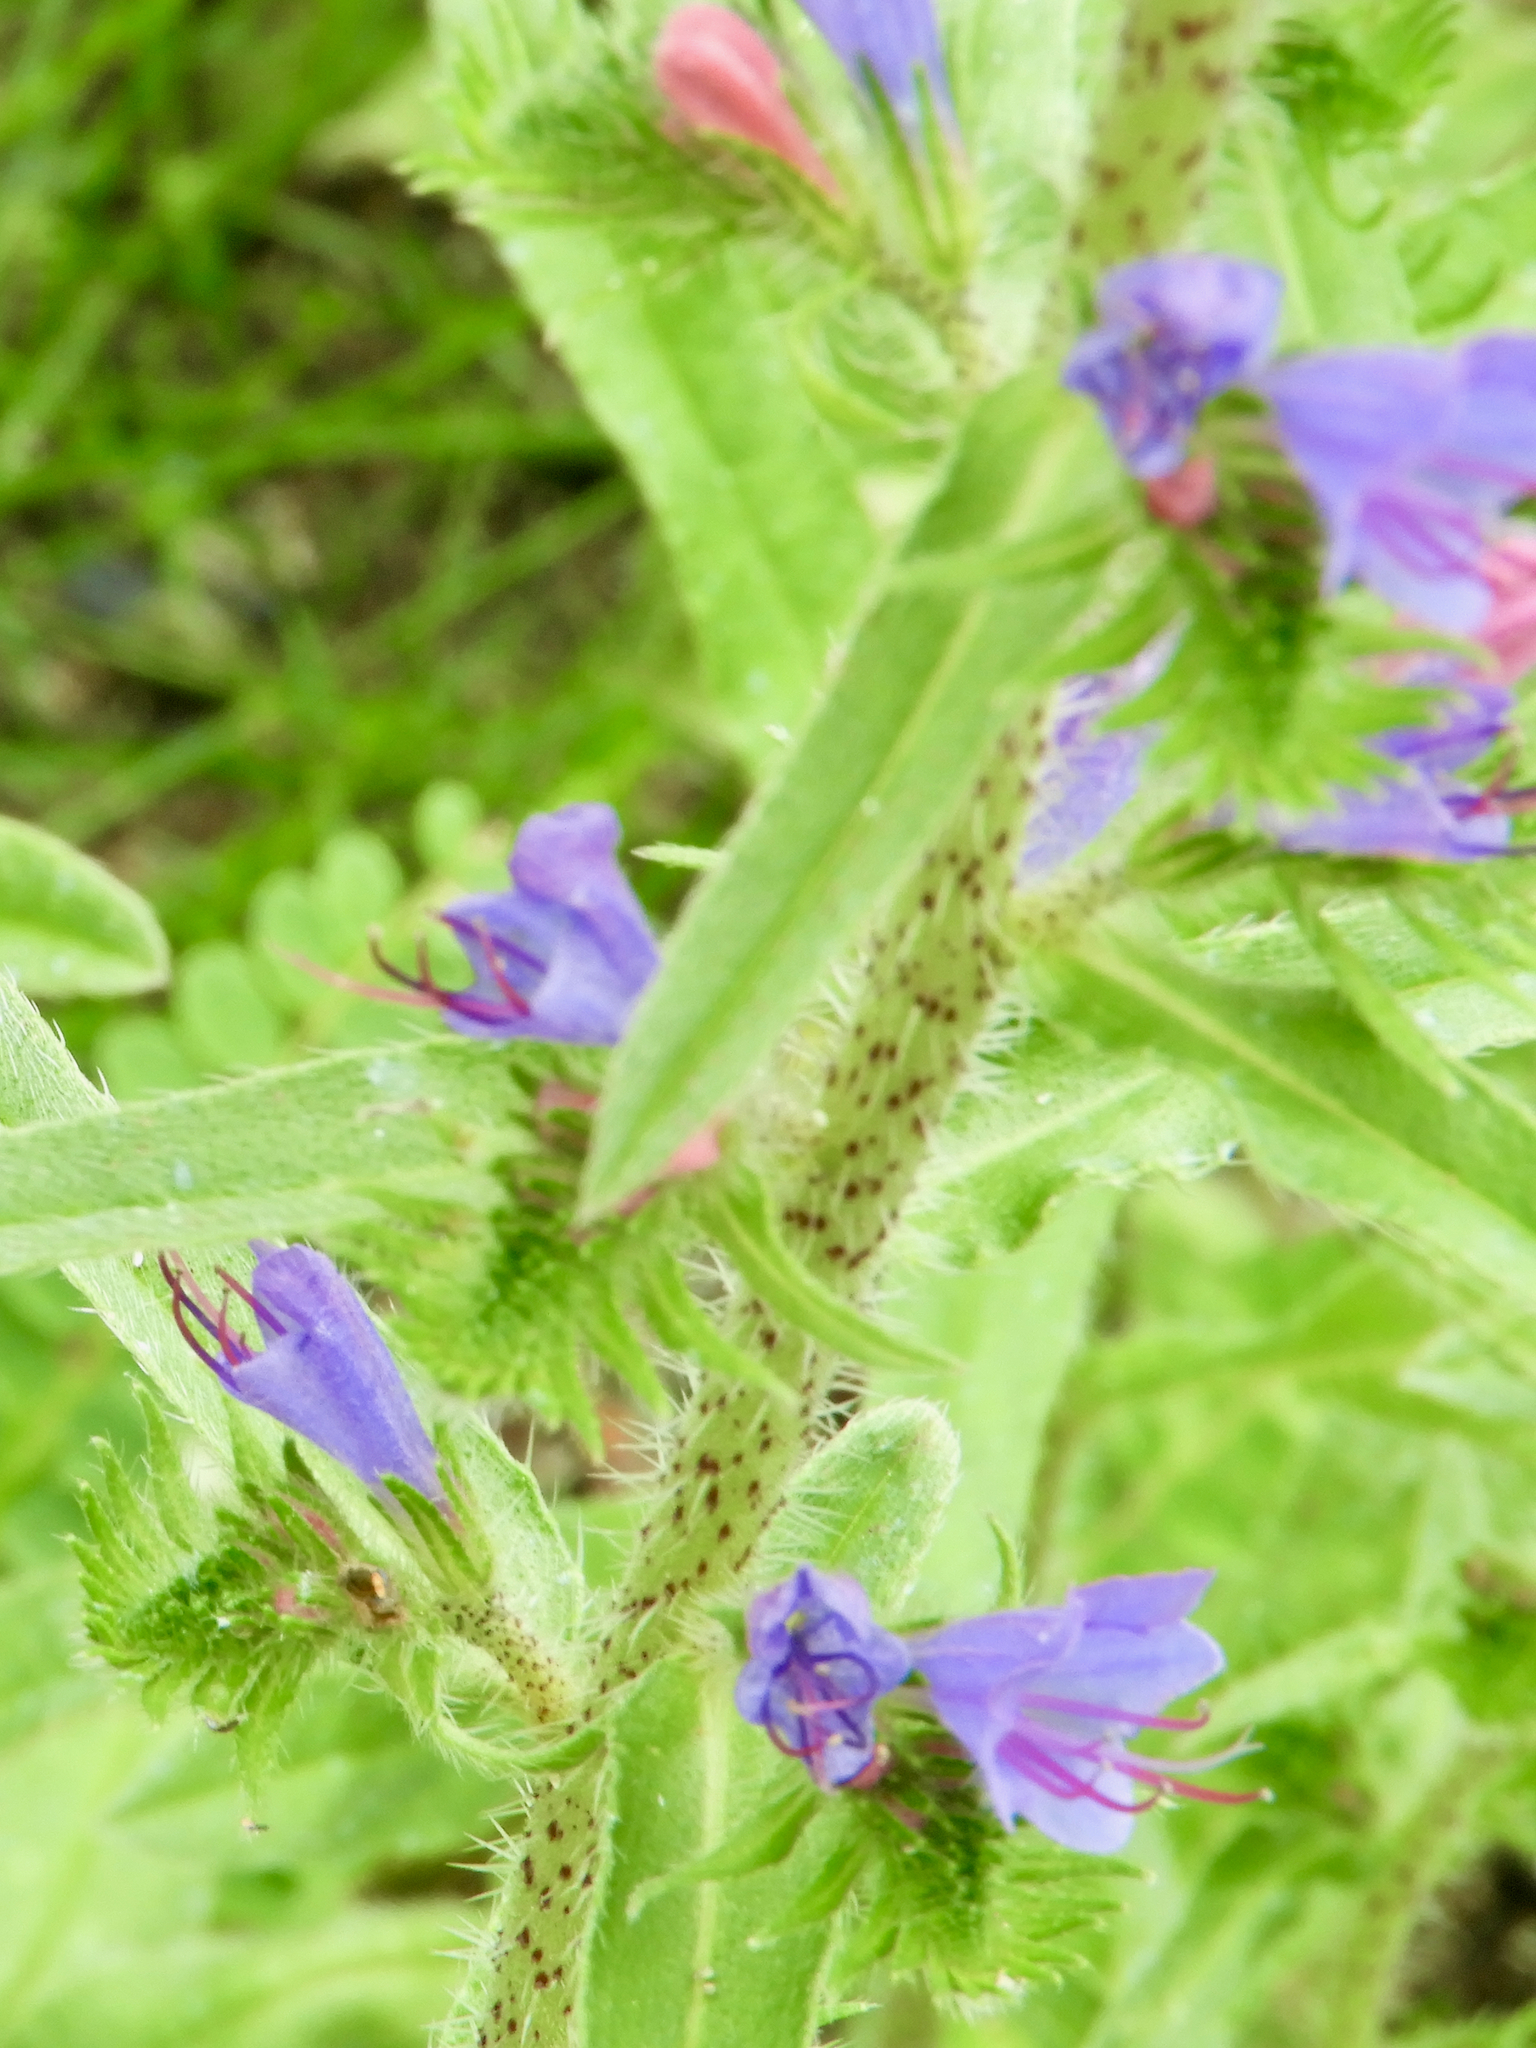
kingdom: Plantae
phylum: Tracheophyta
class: Magnoliopsida
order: Boraginales
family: Boraginaceae
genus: Echium
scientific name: Echium vulgare
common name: Common viper's bugloss
